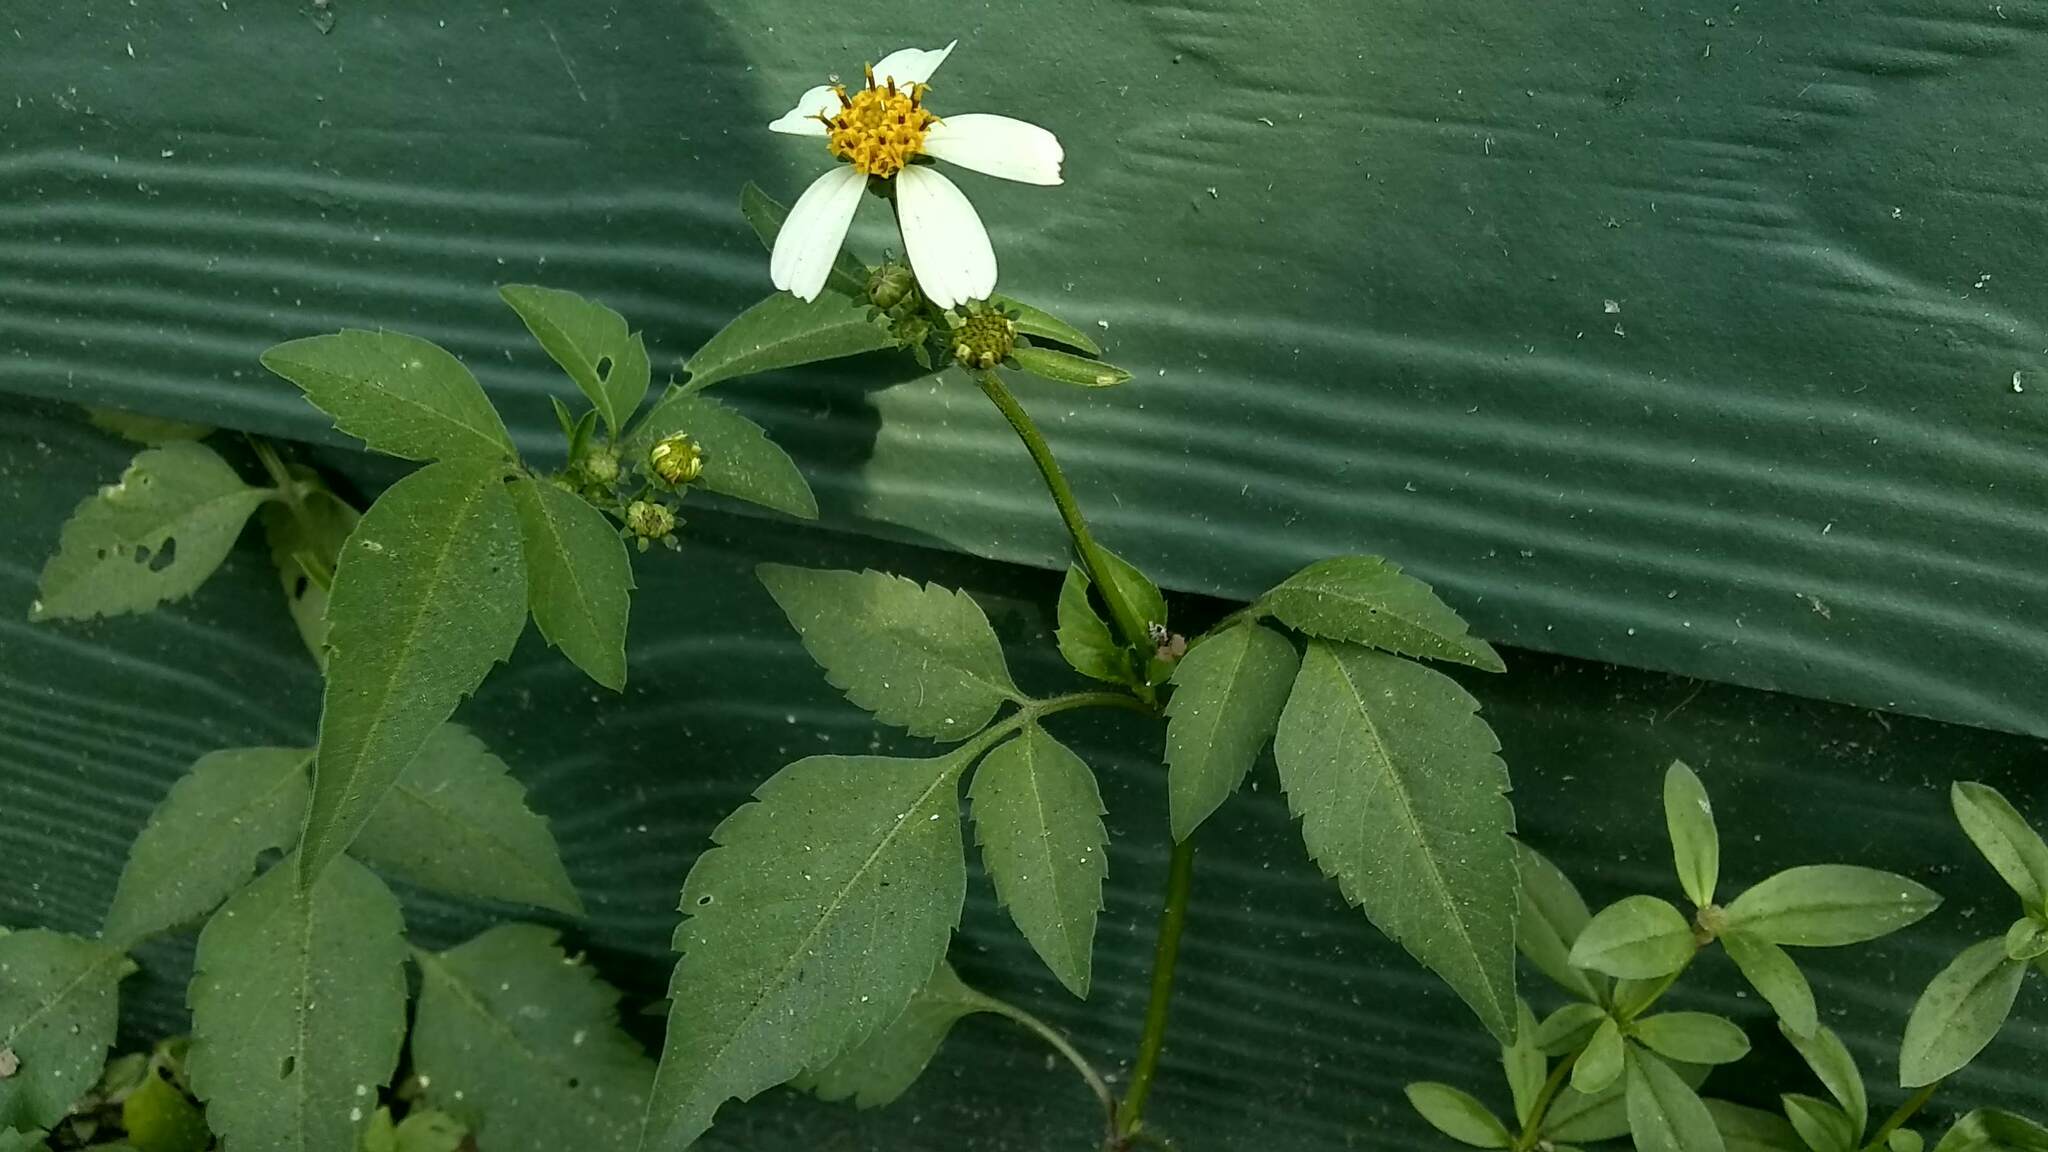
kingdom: Plantae
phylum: Tracheophyta
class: Magnoliopsida
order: Asterales
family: Asteraceae
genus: Bidens
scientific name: Bidens alba
